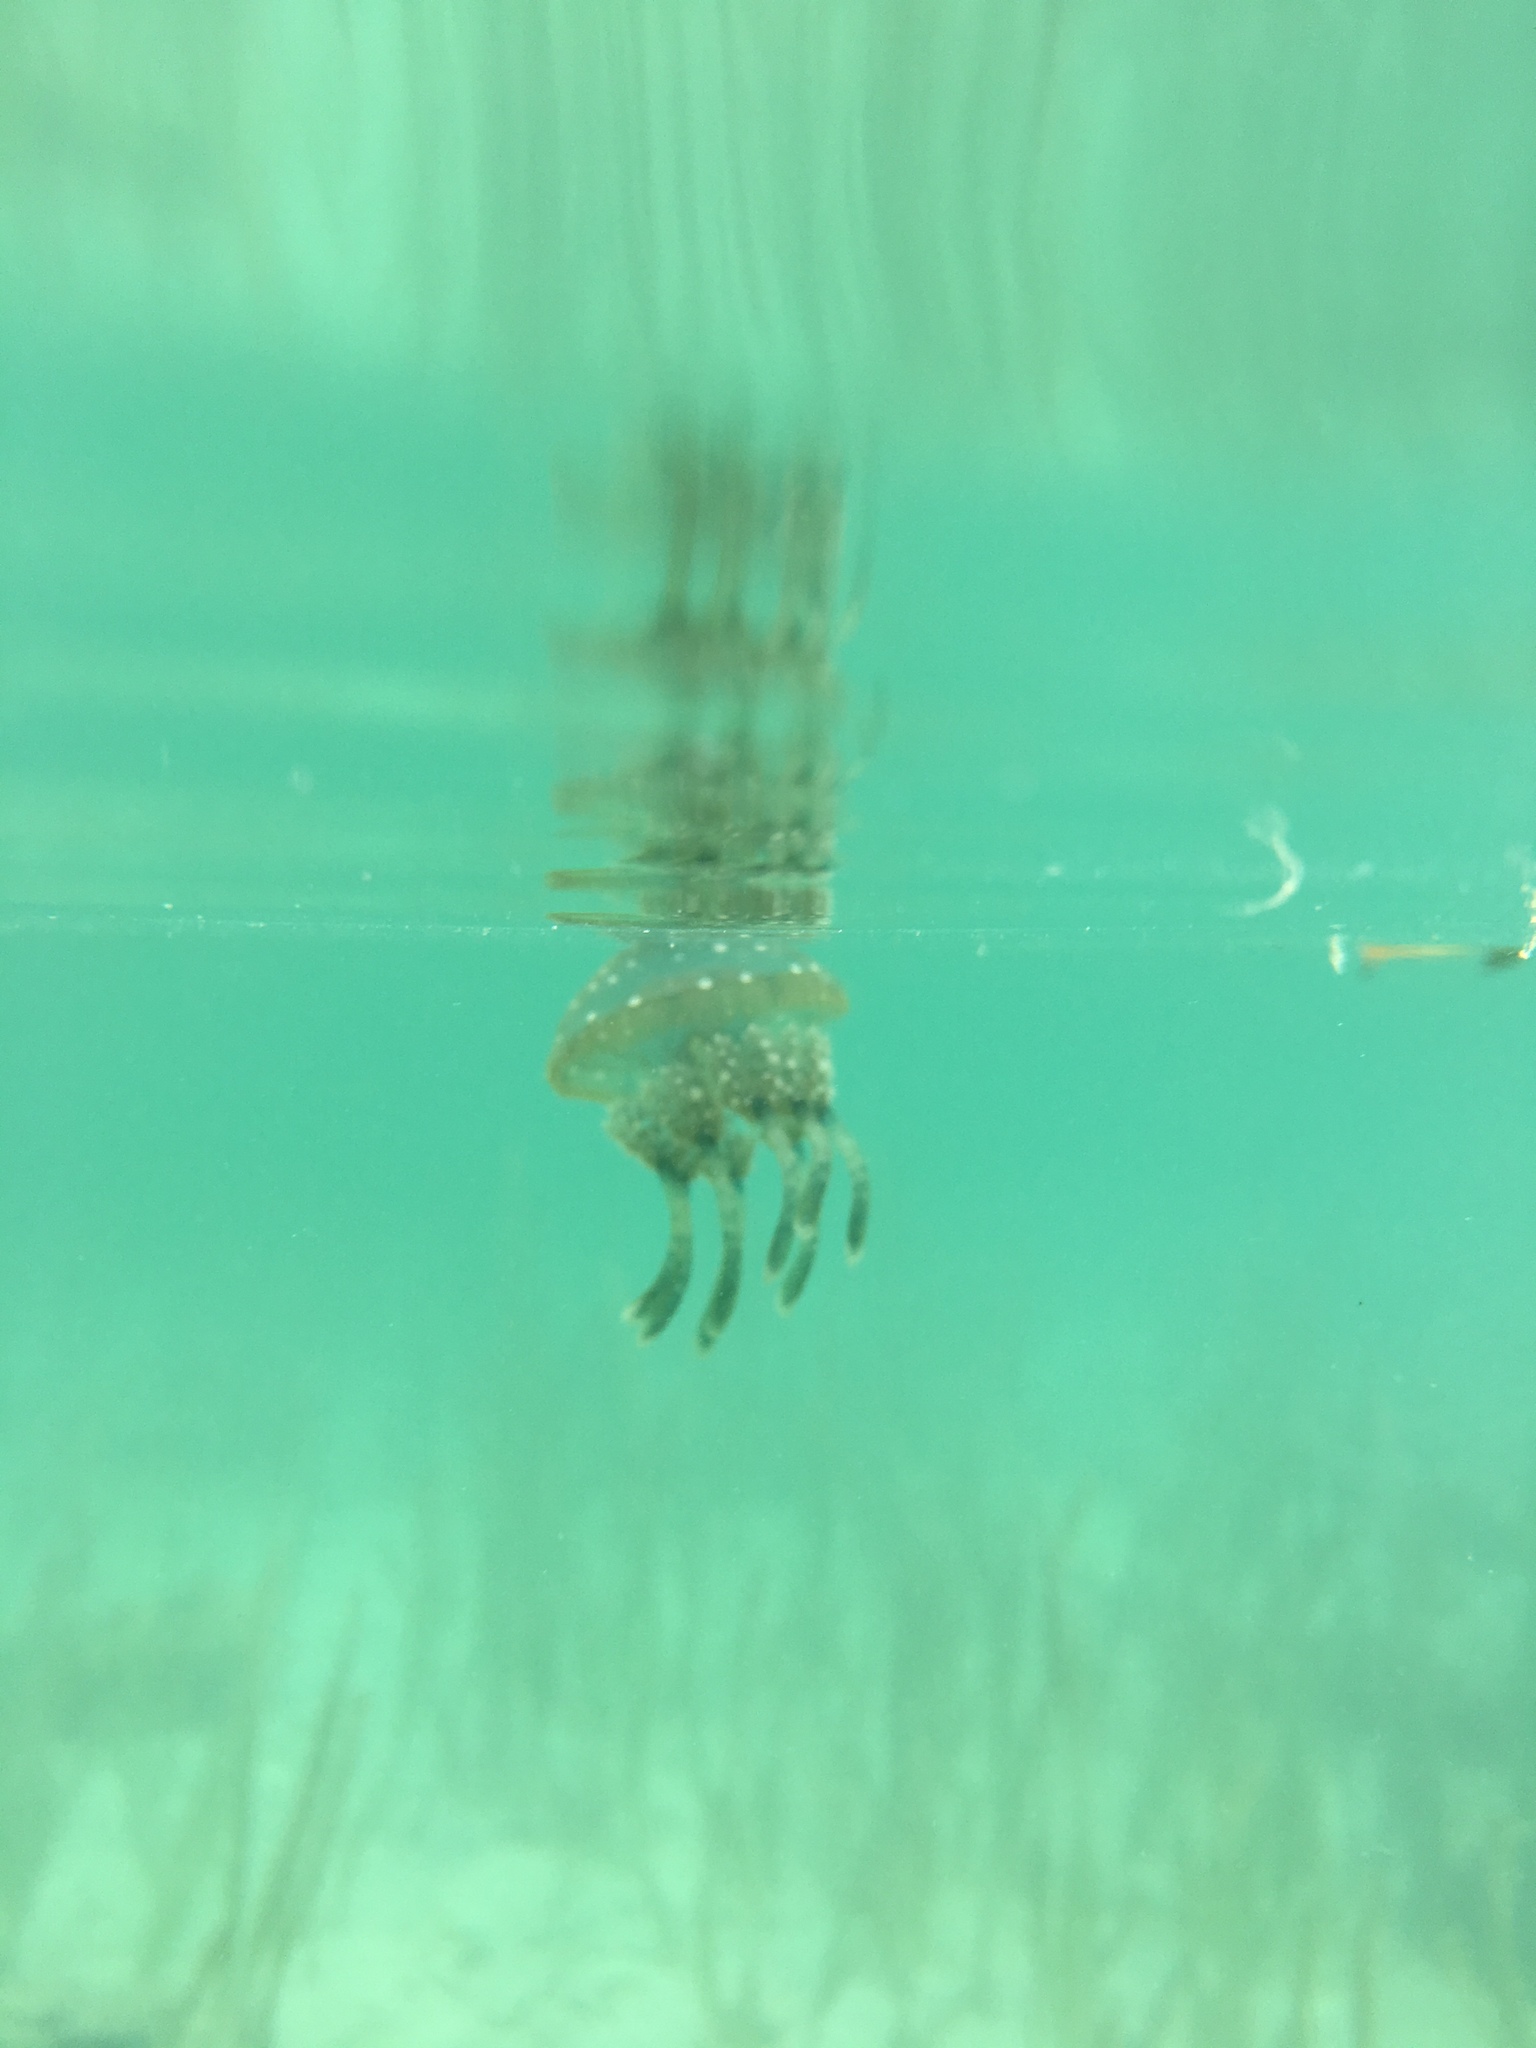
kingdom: Animalia
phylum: Cnidaria
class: Scyphozoa
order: Rhizostomeae
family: Mastigiidae
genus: Mastigias
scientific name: Mastigias papua
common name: Papuan jellyfish
